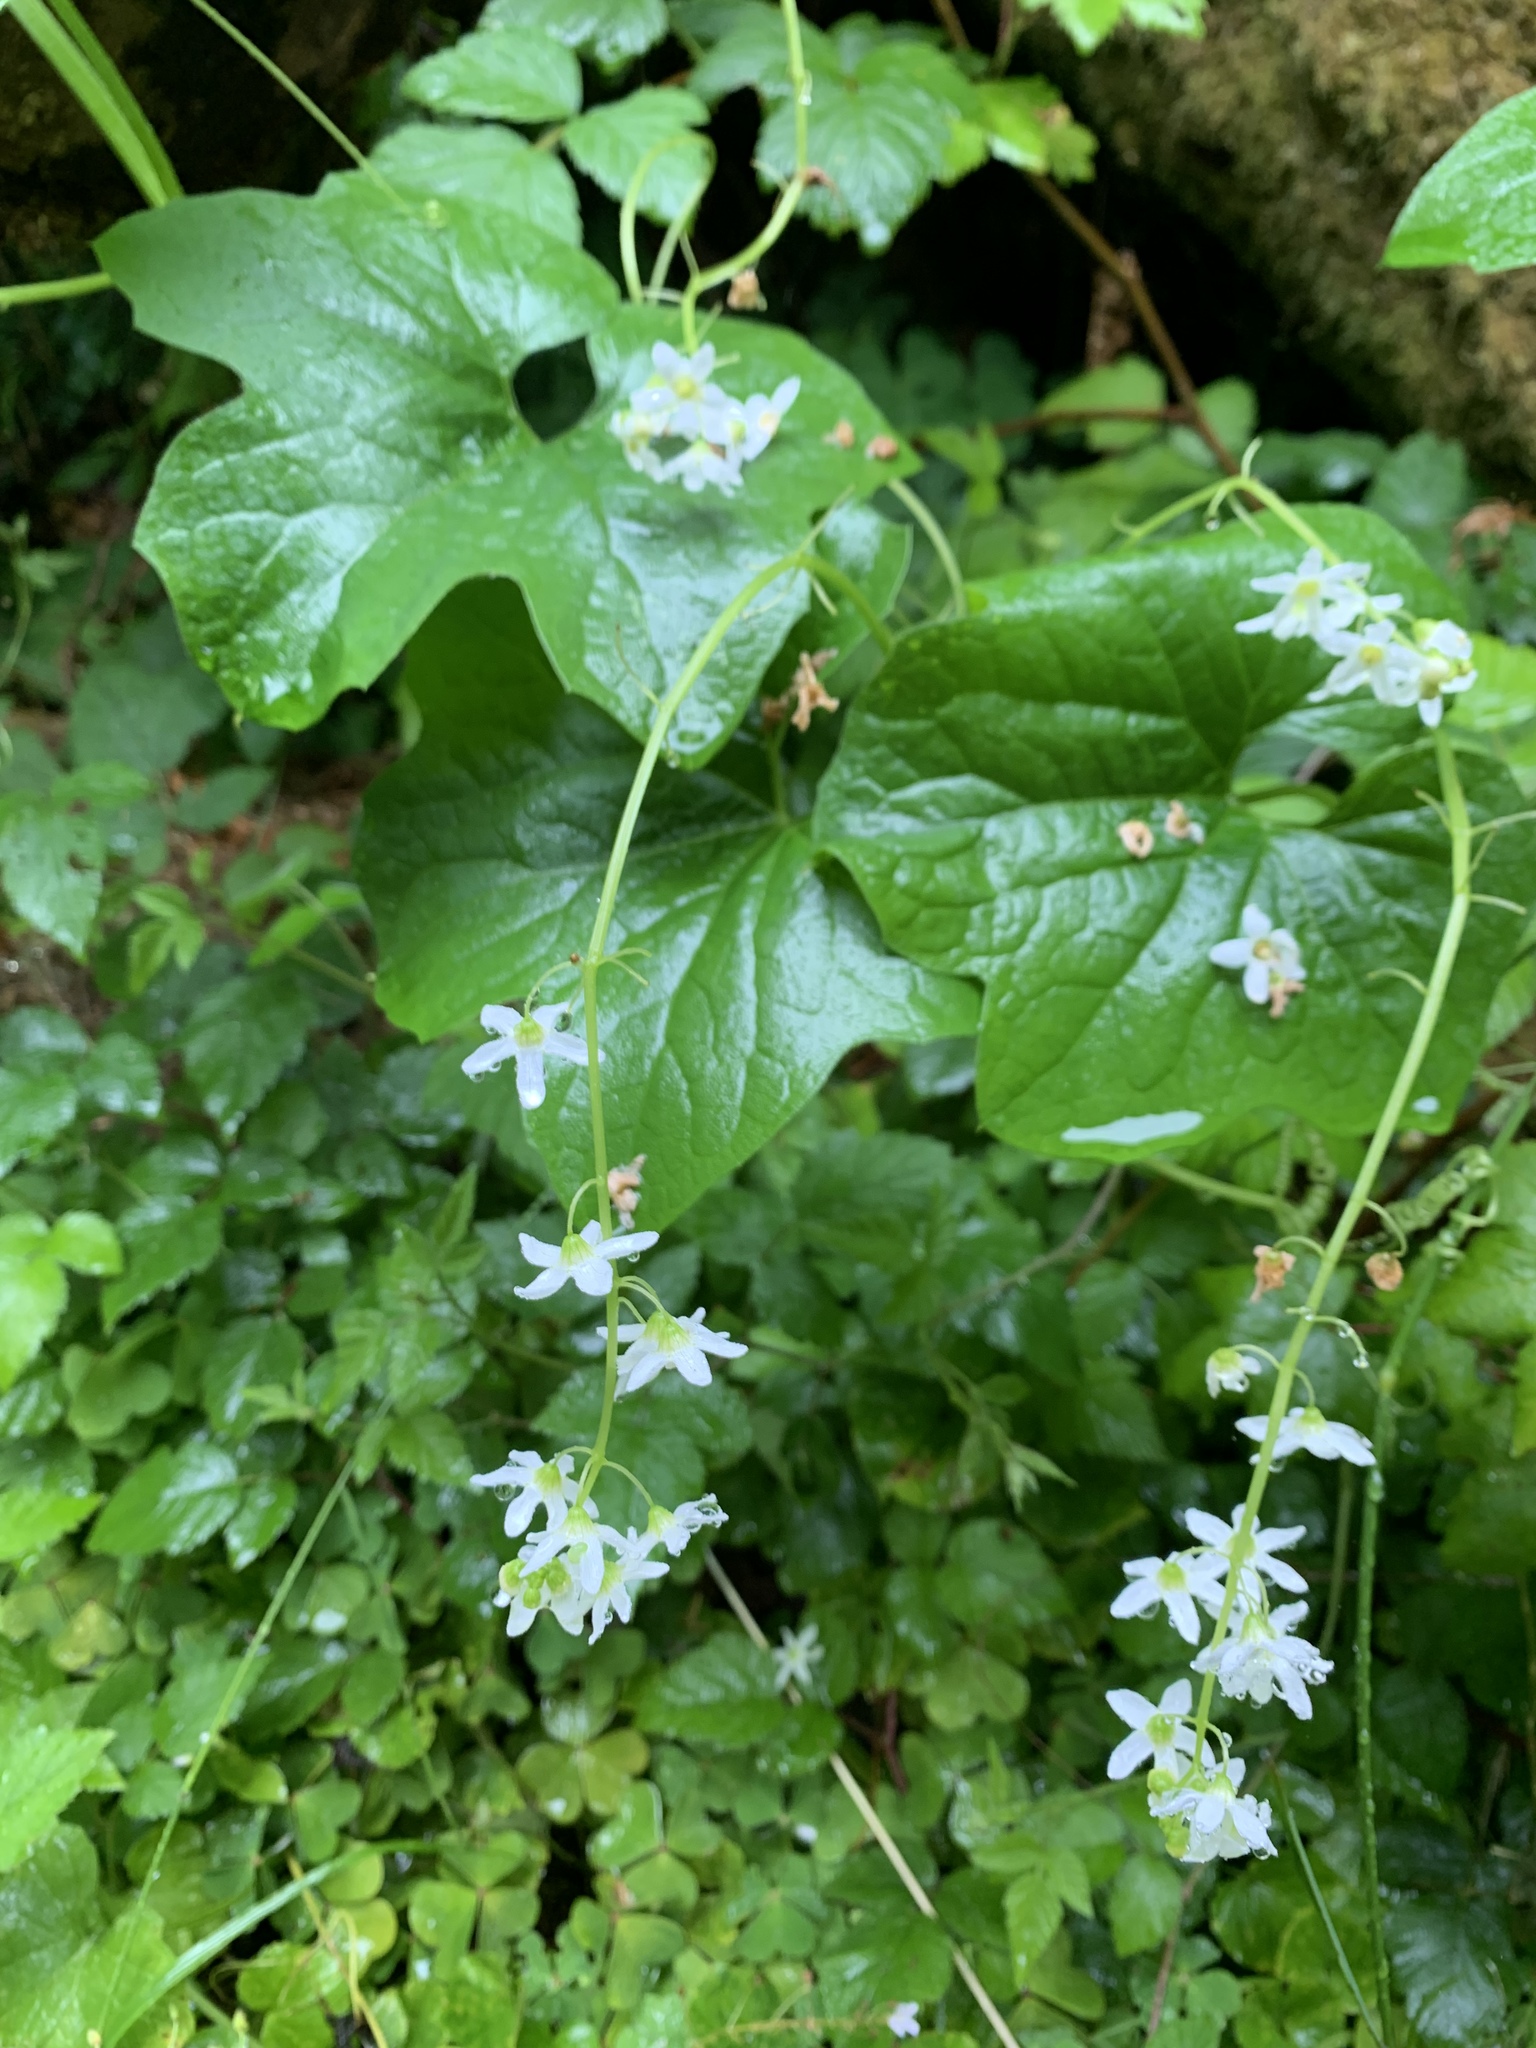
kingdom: Plantae
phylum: Tracheophyta
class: Magnoliopsida
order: Cucurbitales
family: Cucurbitaceae
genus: Marah
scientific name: Marah oregana
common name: Coastal manroot
